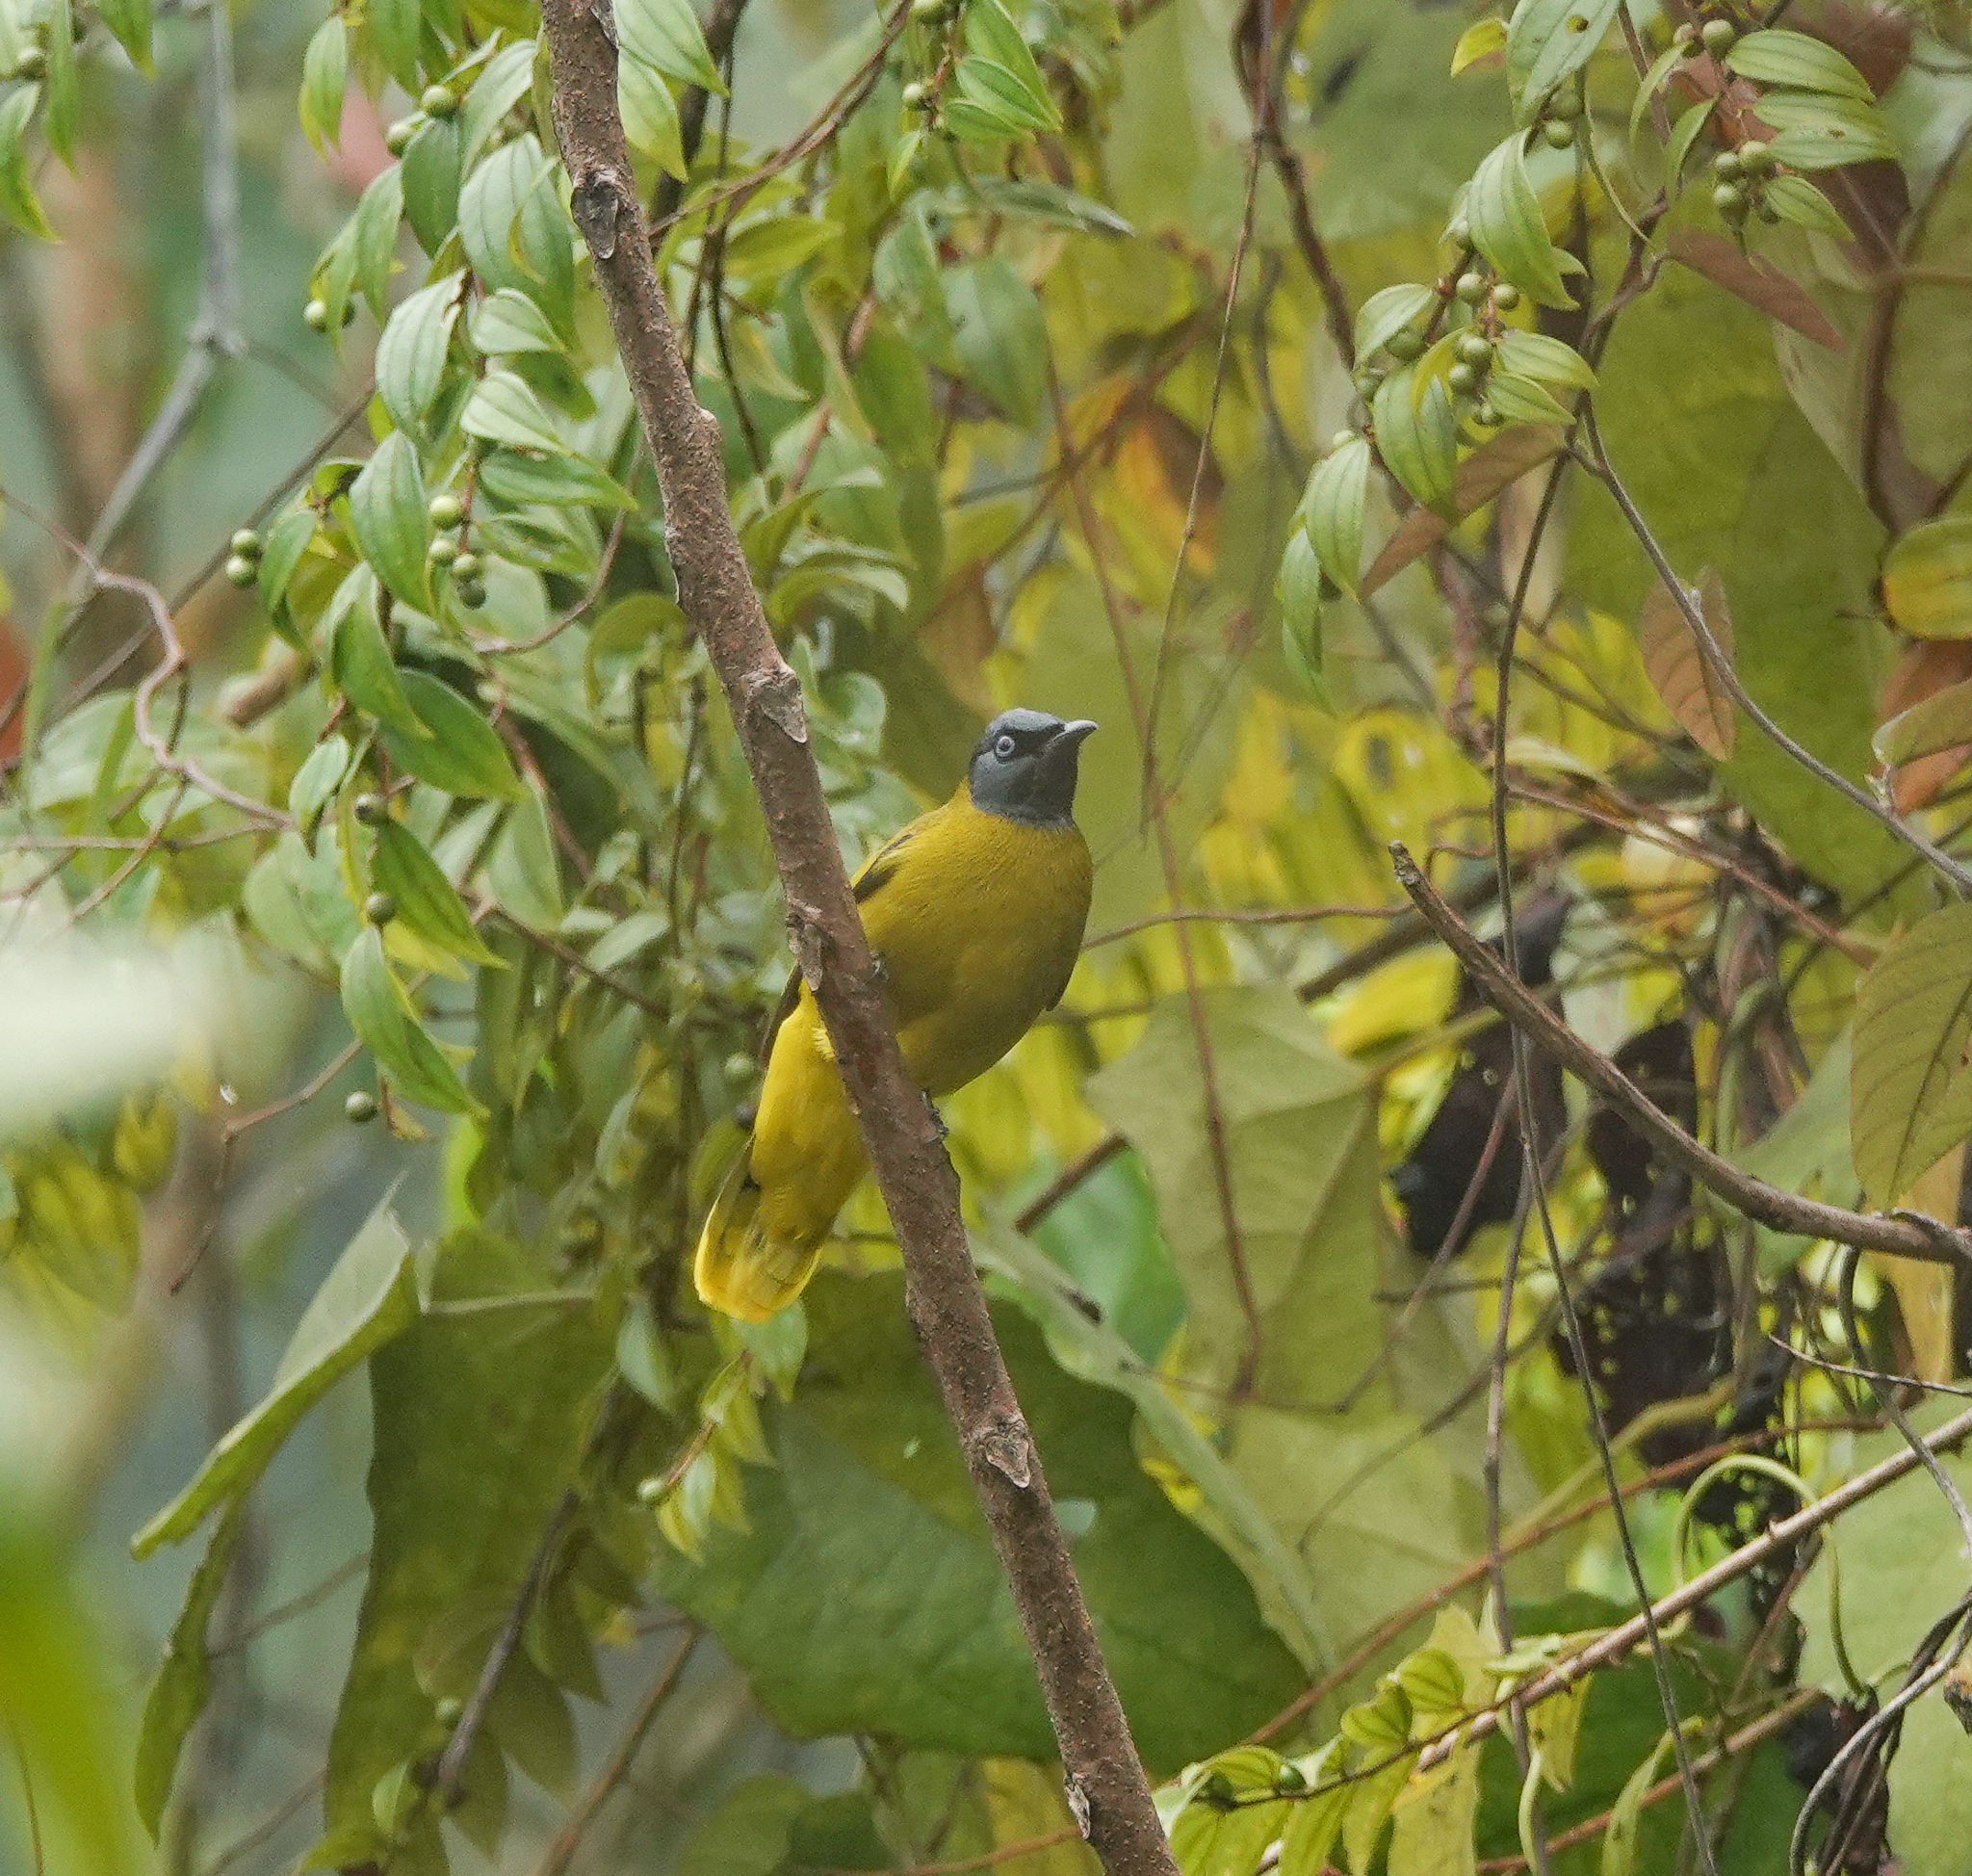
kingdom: Animalia
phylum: Chordata
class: Aves
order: Passeriformes
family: Pycnonotidae
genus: Microtarsus
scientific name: Microtarsus
